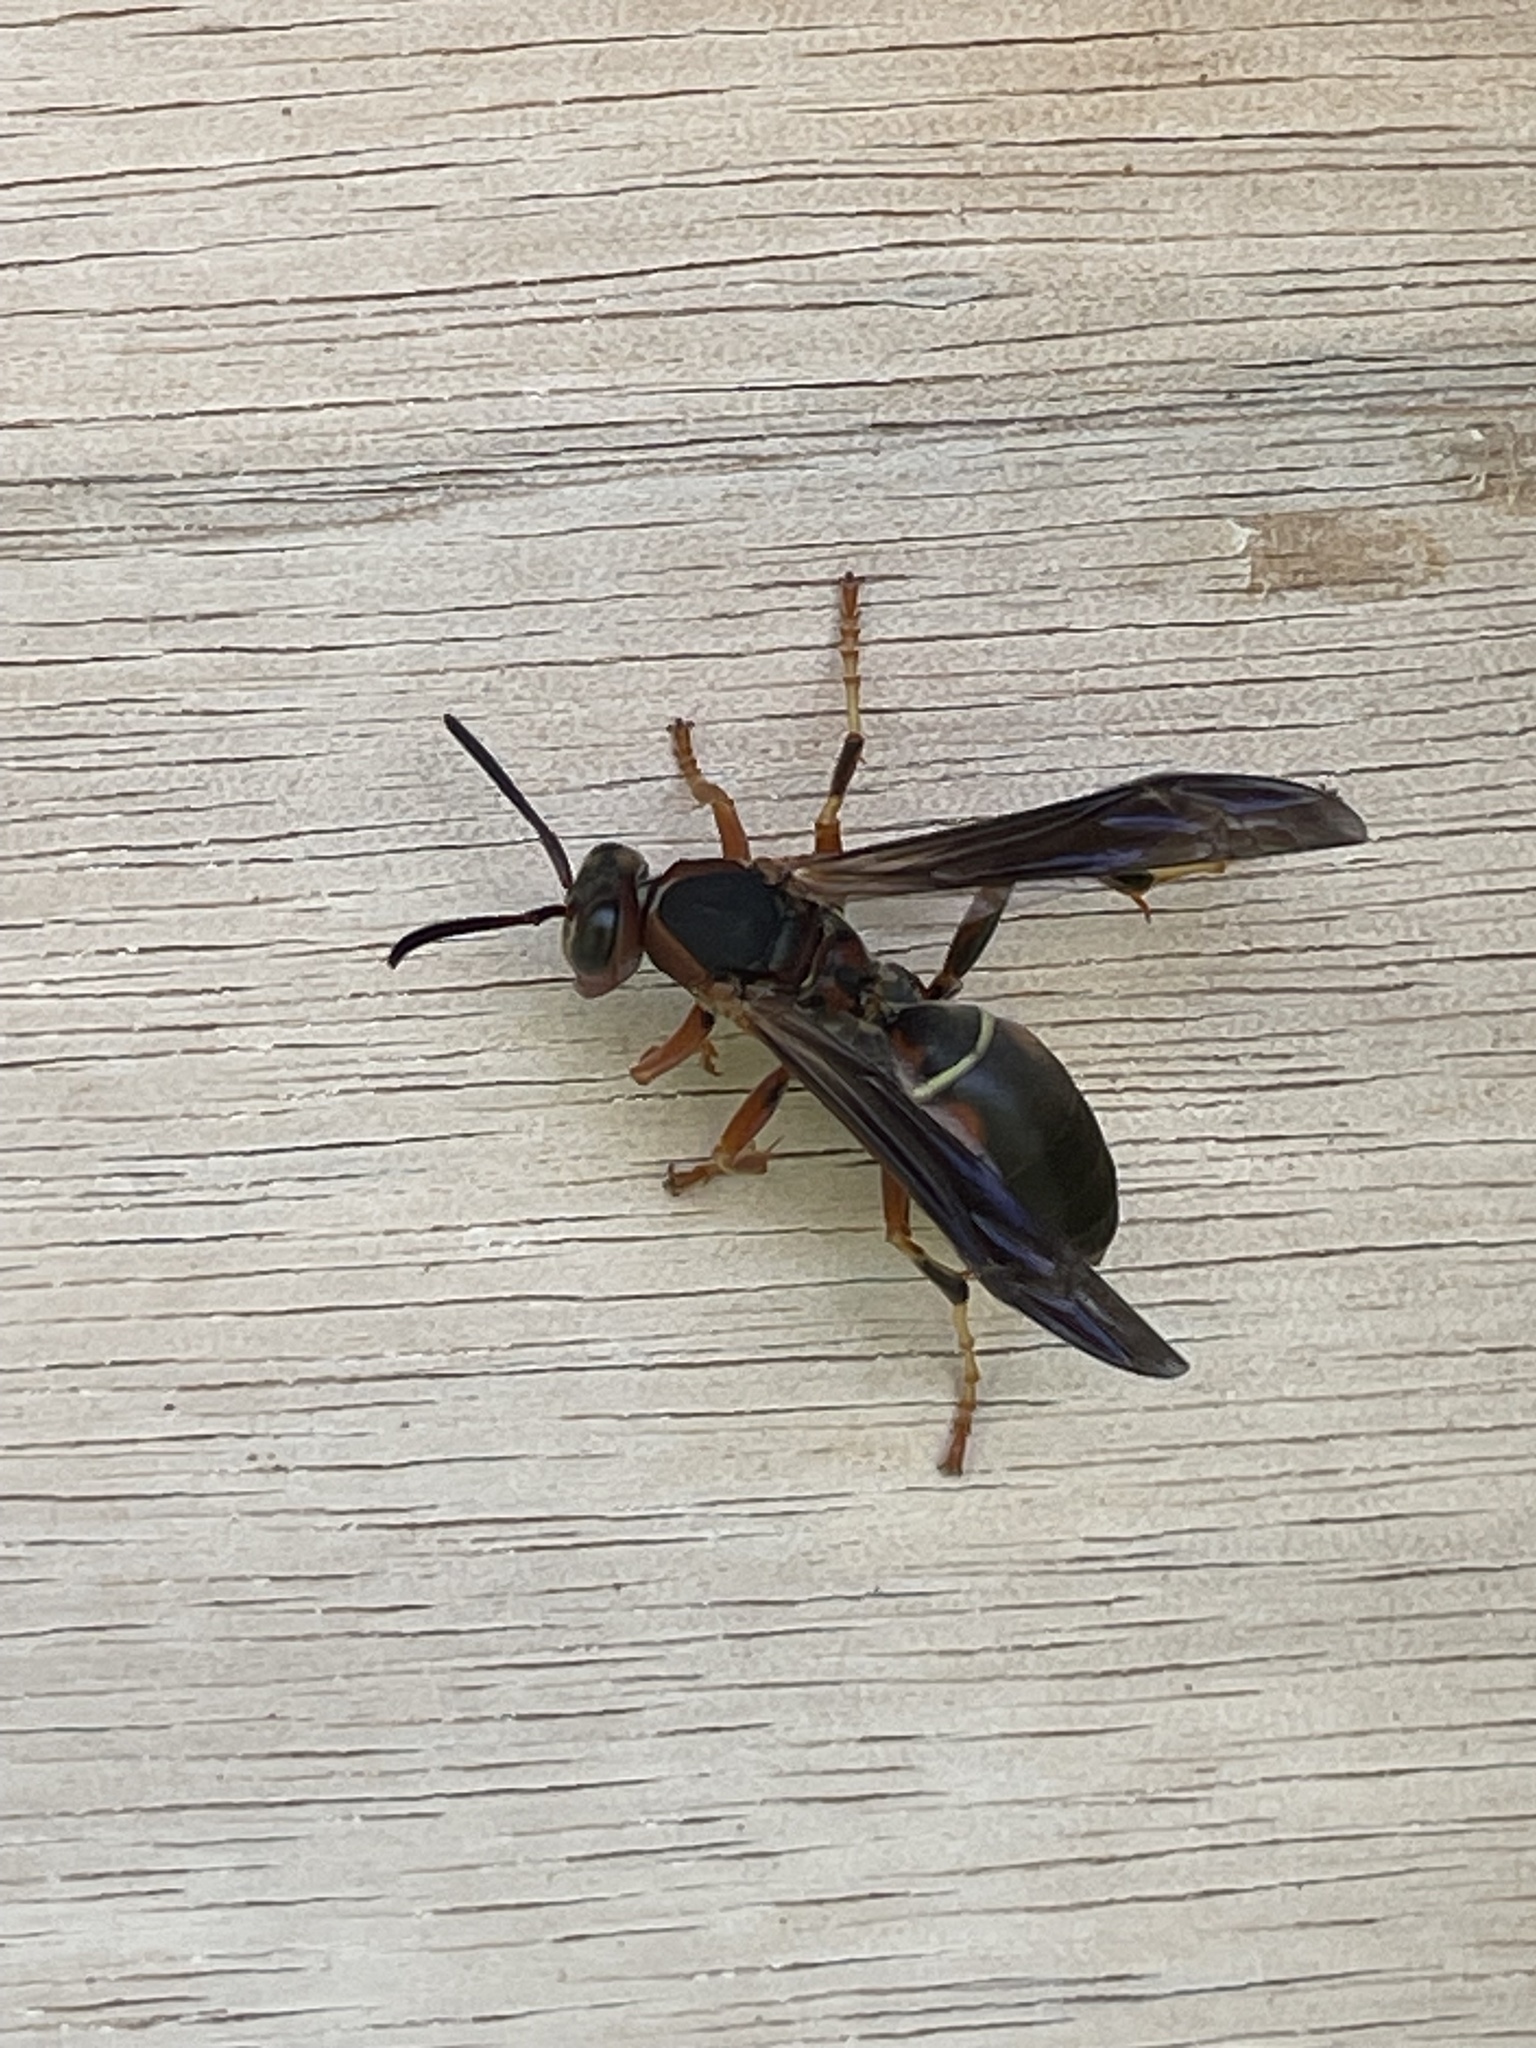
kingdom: Animalia
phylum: Arthropoda
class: Insecta
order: Hymenoptera
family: Eumenidae
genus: Polistes
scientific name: Polistes fuscatus
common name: Dark paper wasp
